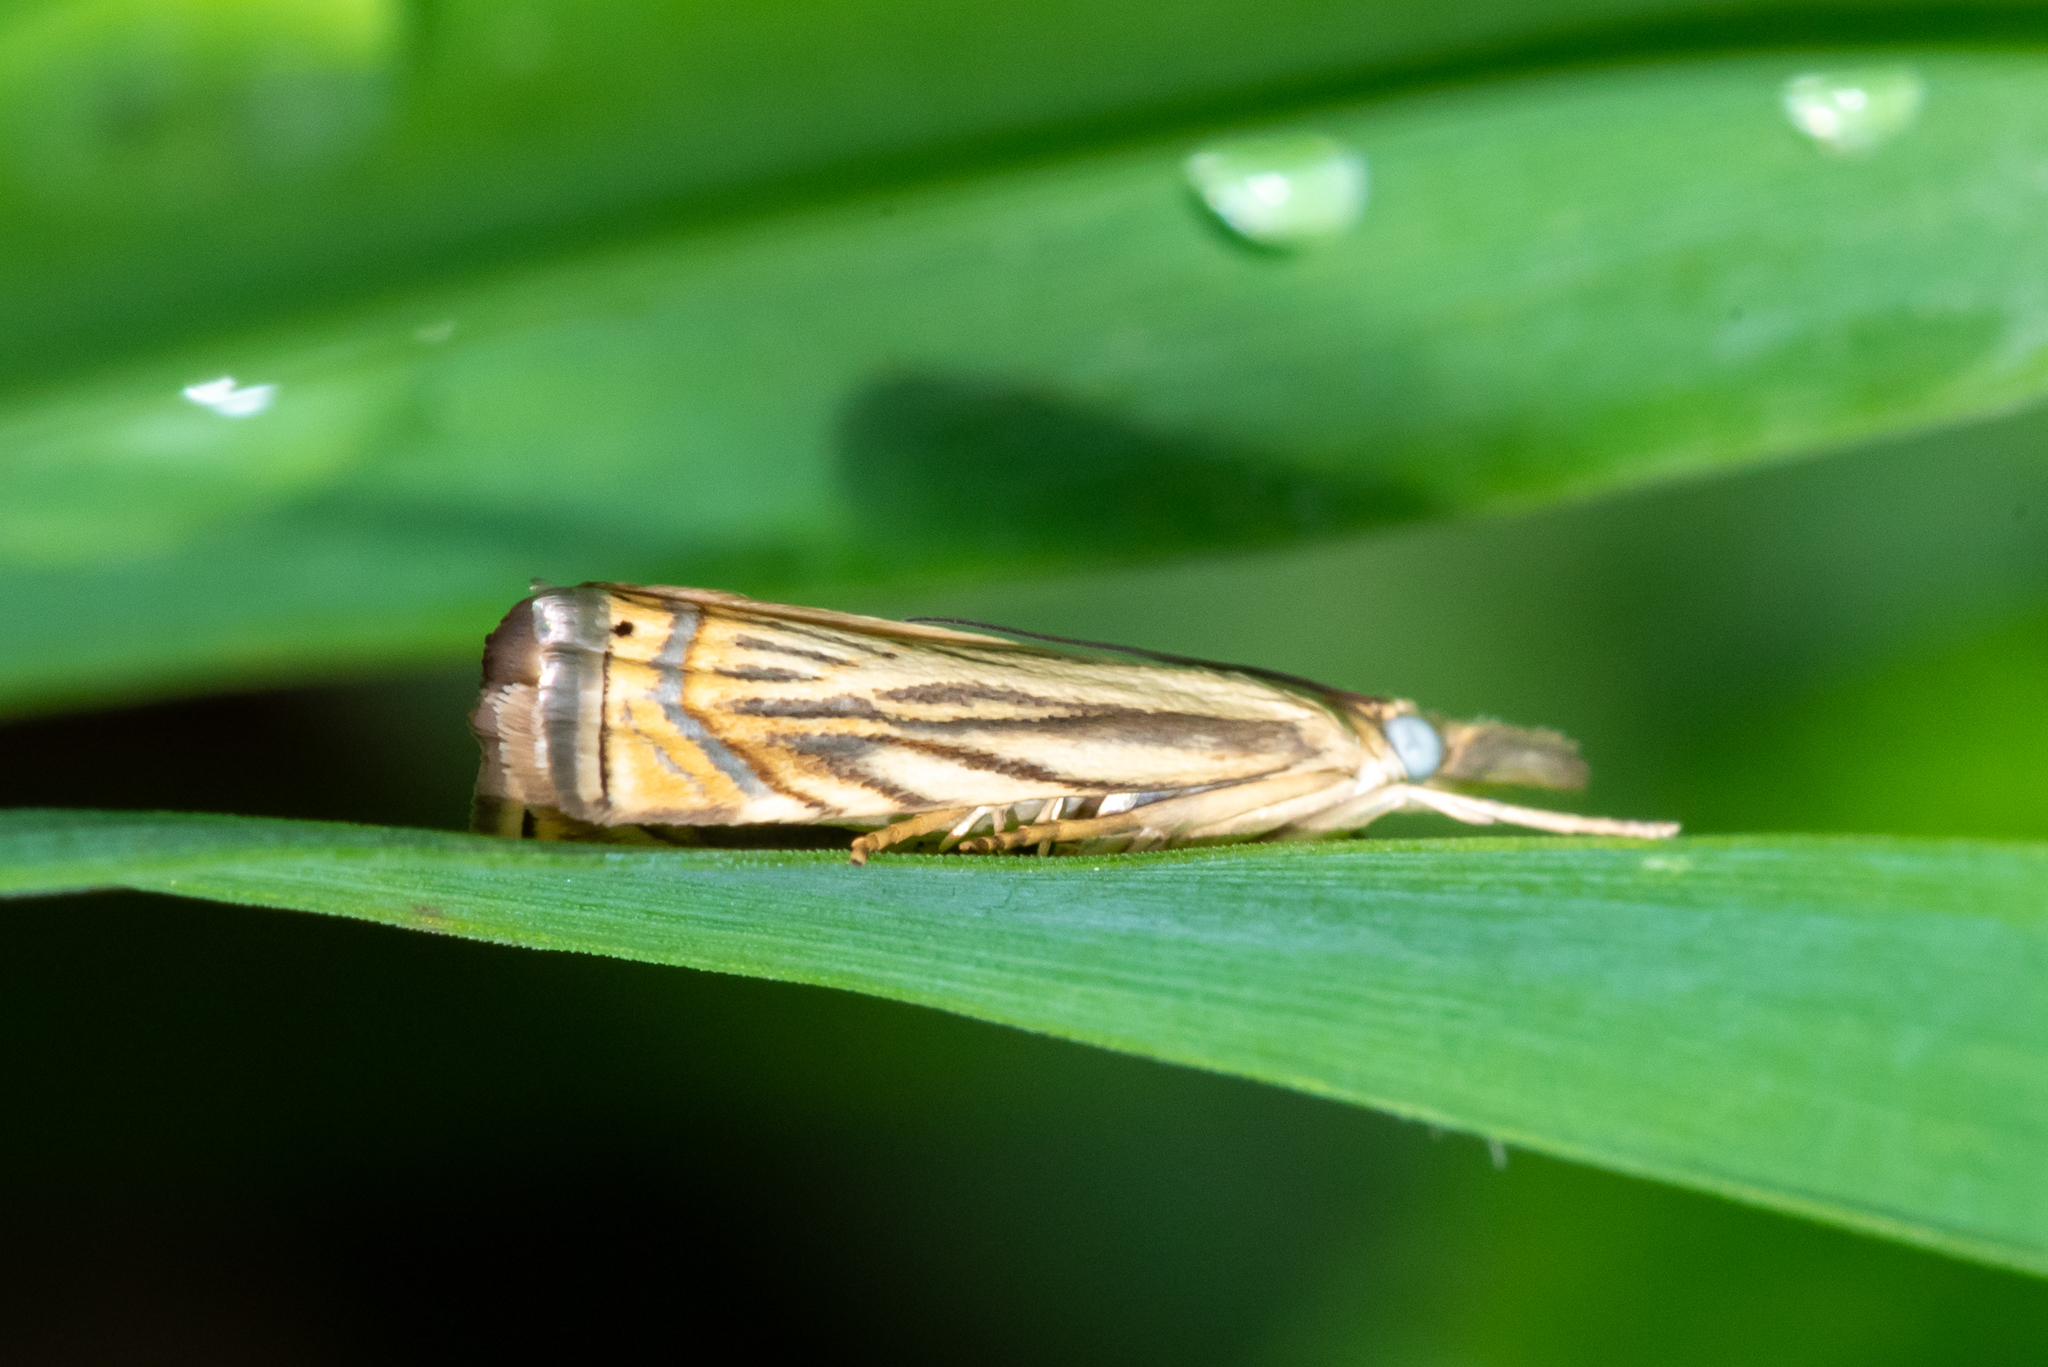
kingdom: Animalia
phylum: Arthropoda
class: Insecta
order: Lepidoptera
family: Crambidae
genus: Chrysoteuchia
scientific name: Chrysoteuchia topiarius
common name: Topiary grass-veneer
